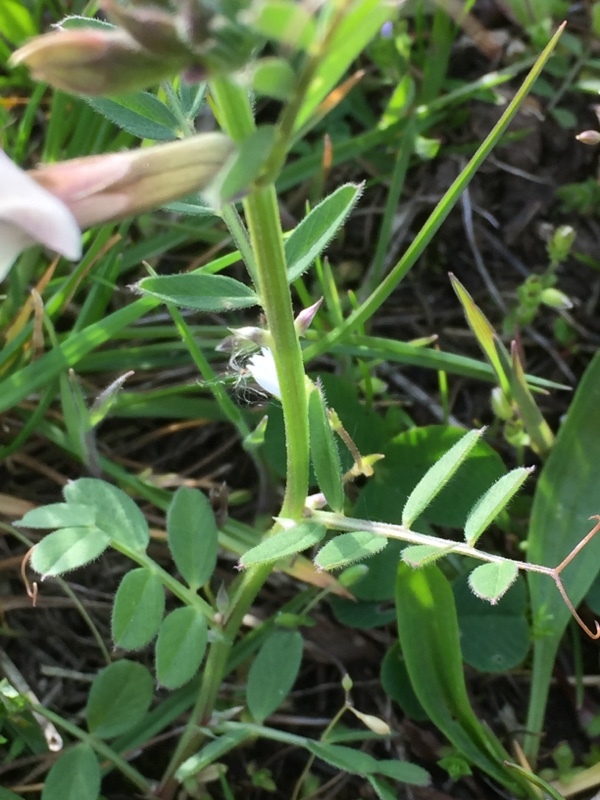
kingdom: Plantae
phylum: Tracheophyta
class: Magnoliopsida
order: Fabales
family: Fabaceae
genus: Vicia
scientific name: Vicia grandiflora
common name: Large yellow vetch
